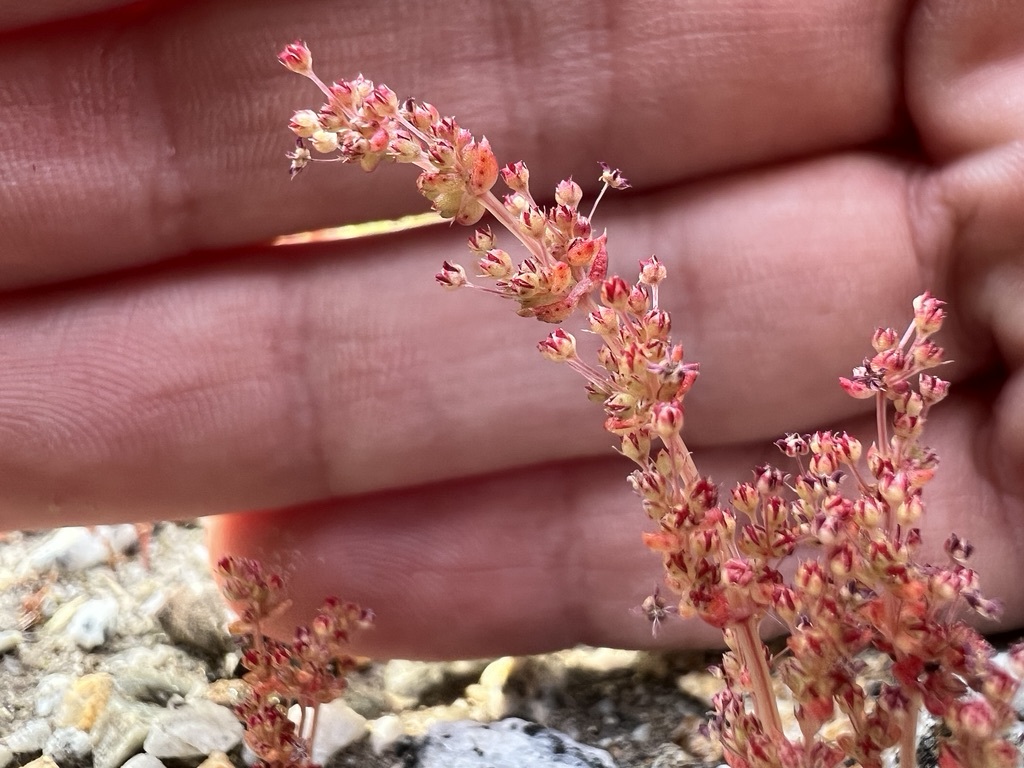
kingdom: Plantae
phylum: Tracheophyta
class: Magnoliopsida
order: Saxifragales
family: Crassulaceae
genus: Crassula
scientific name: Crassula connata
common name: Erect pygmyweed
